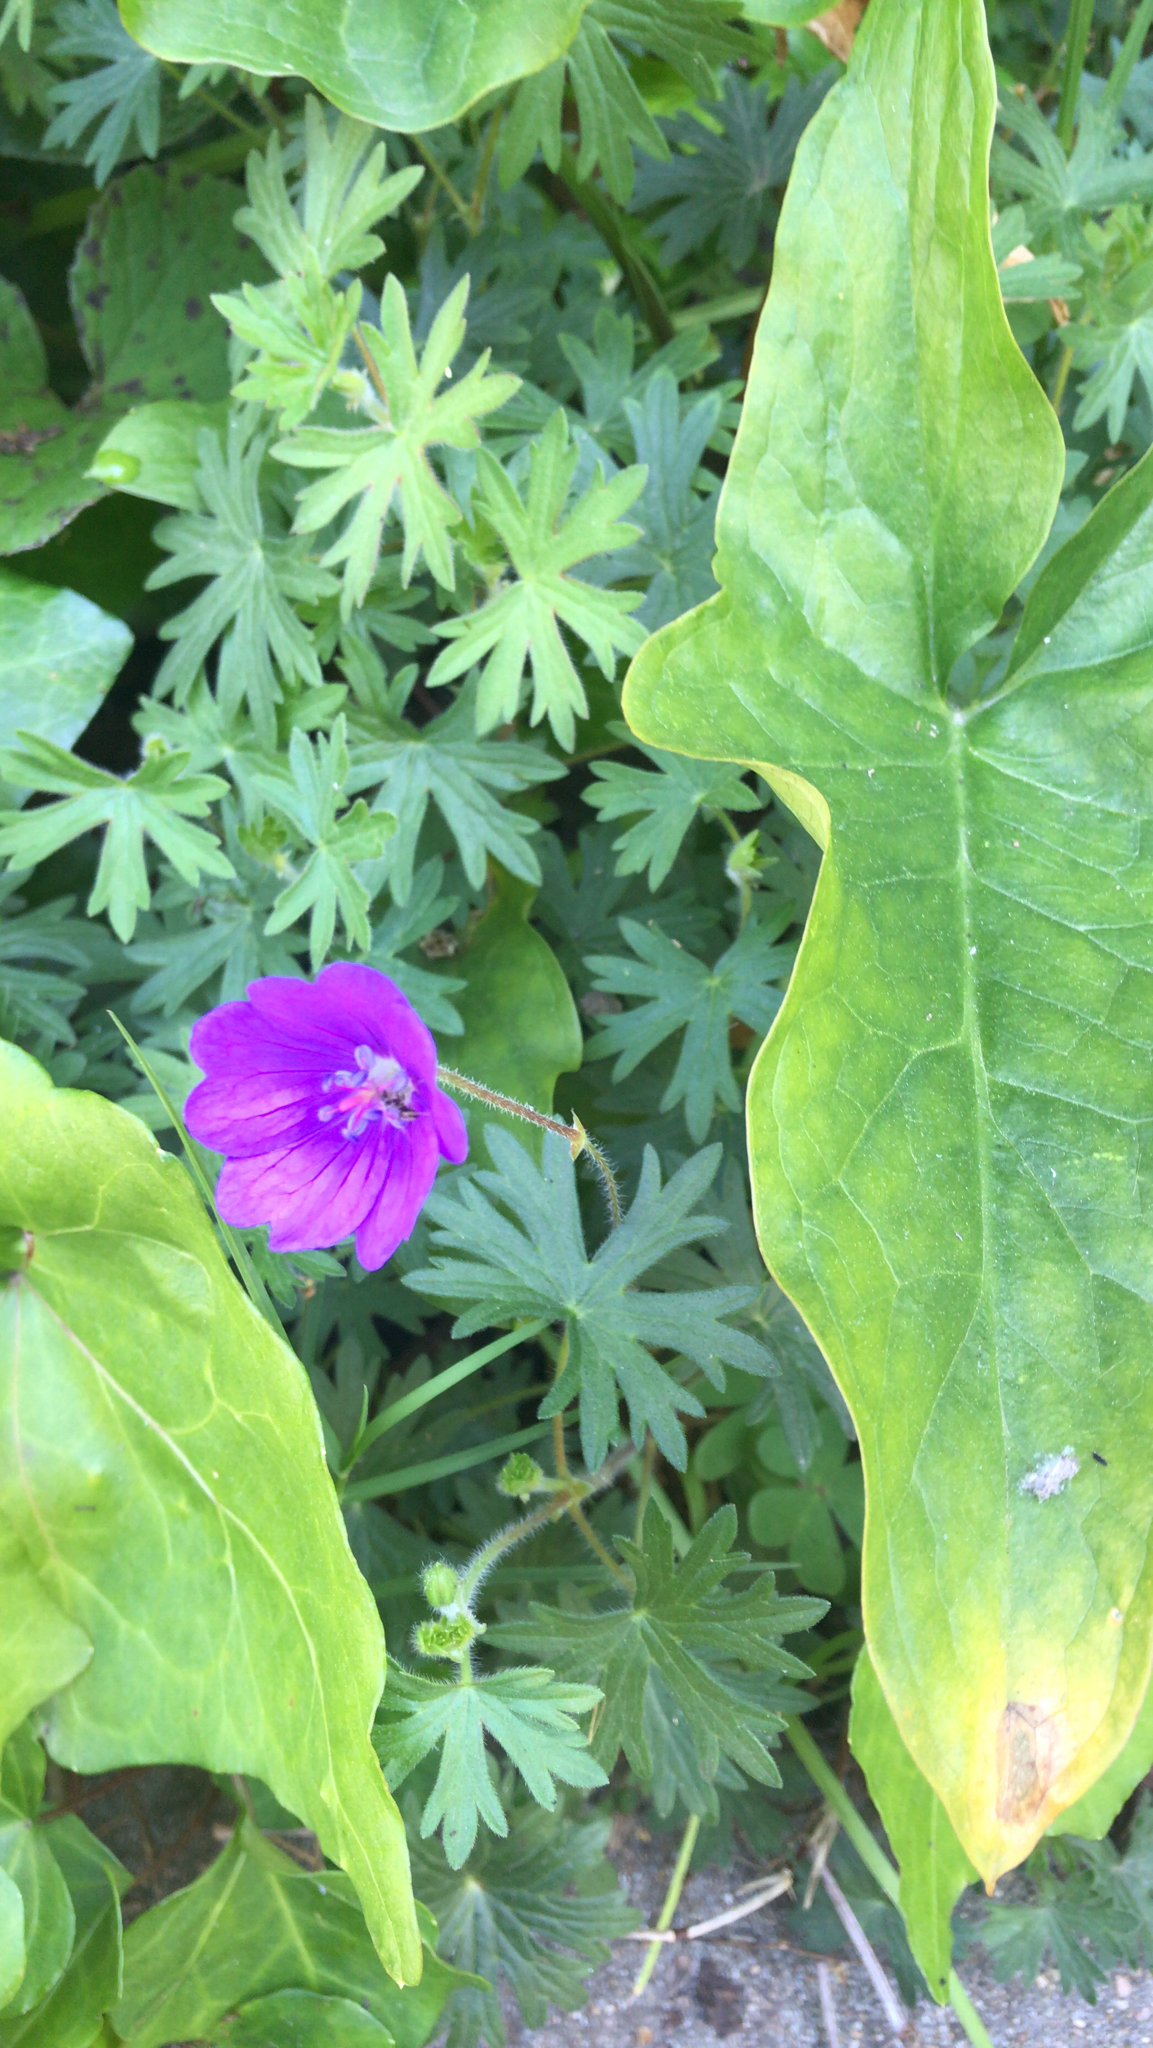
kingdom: Plantae
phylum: Tracheophyta
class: Magnoliopsida
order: Geraniales
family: Geraniaceae
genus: Geranium
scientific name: Geranium sanguineum
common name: Bloody crane's-bill
